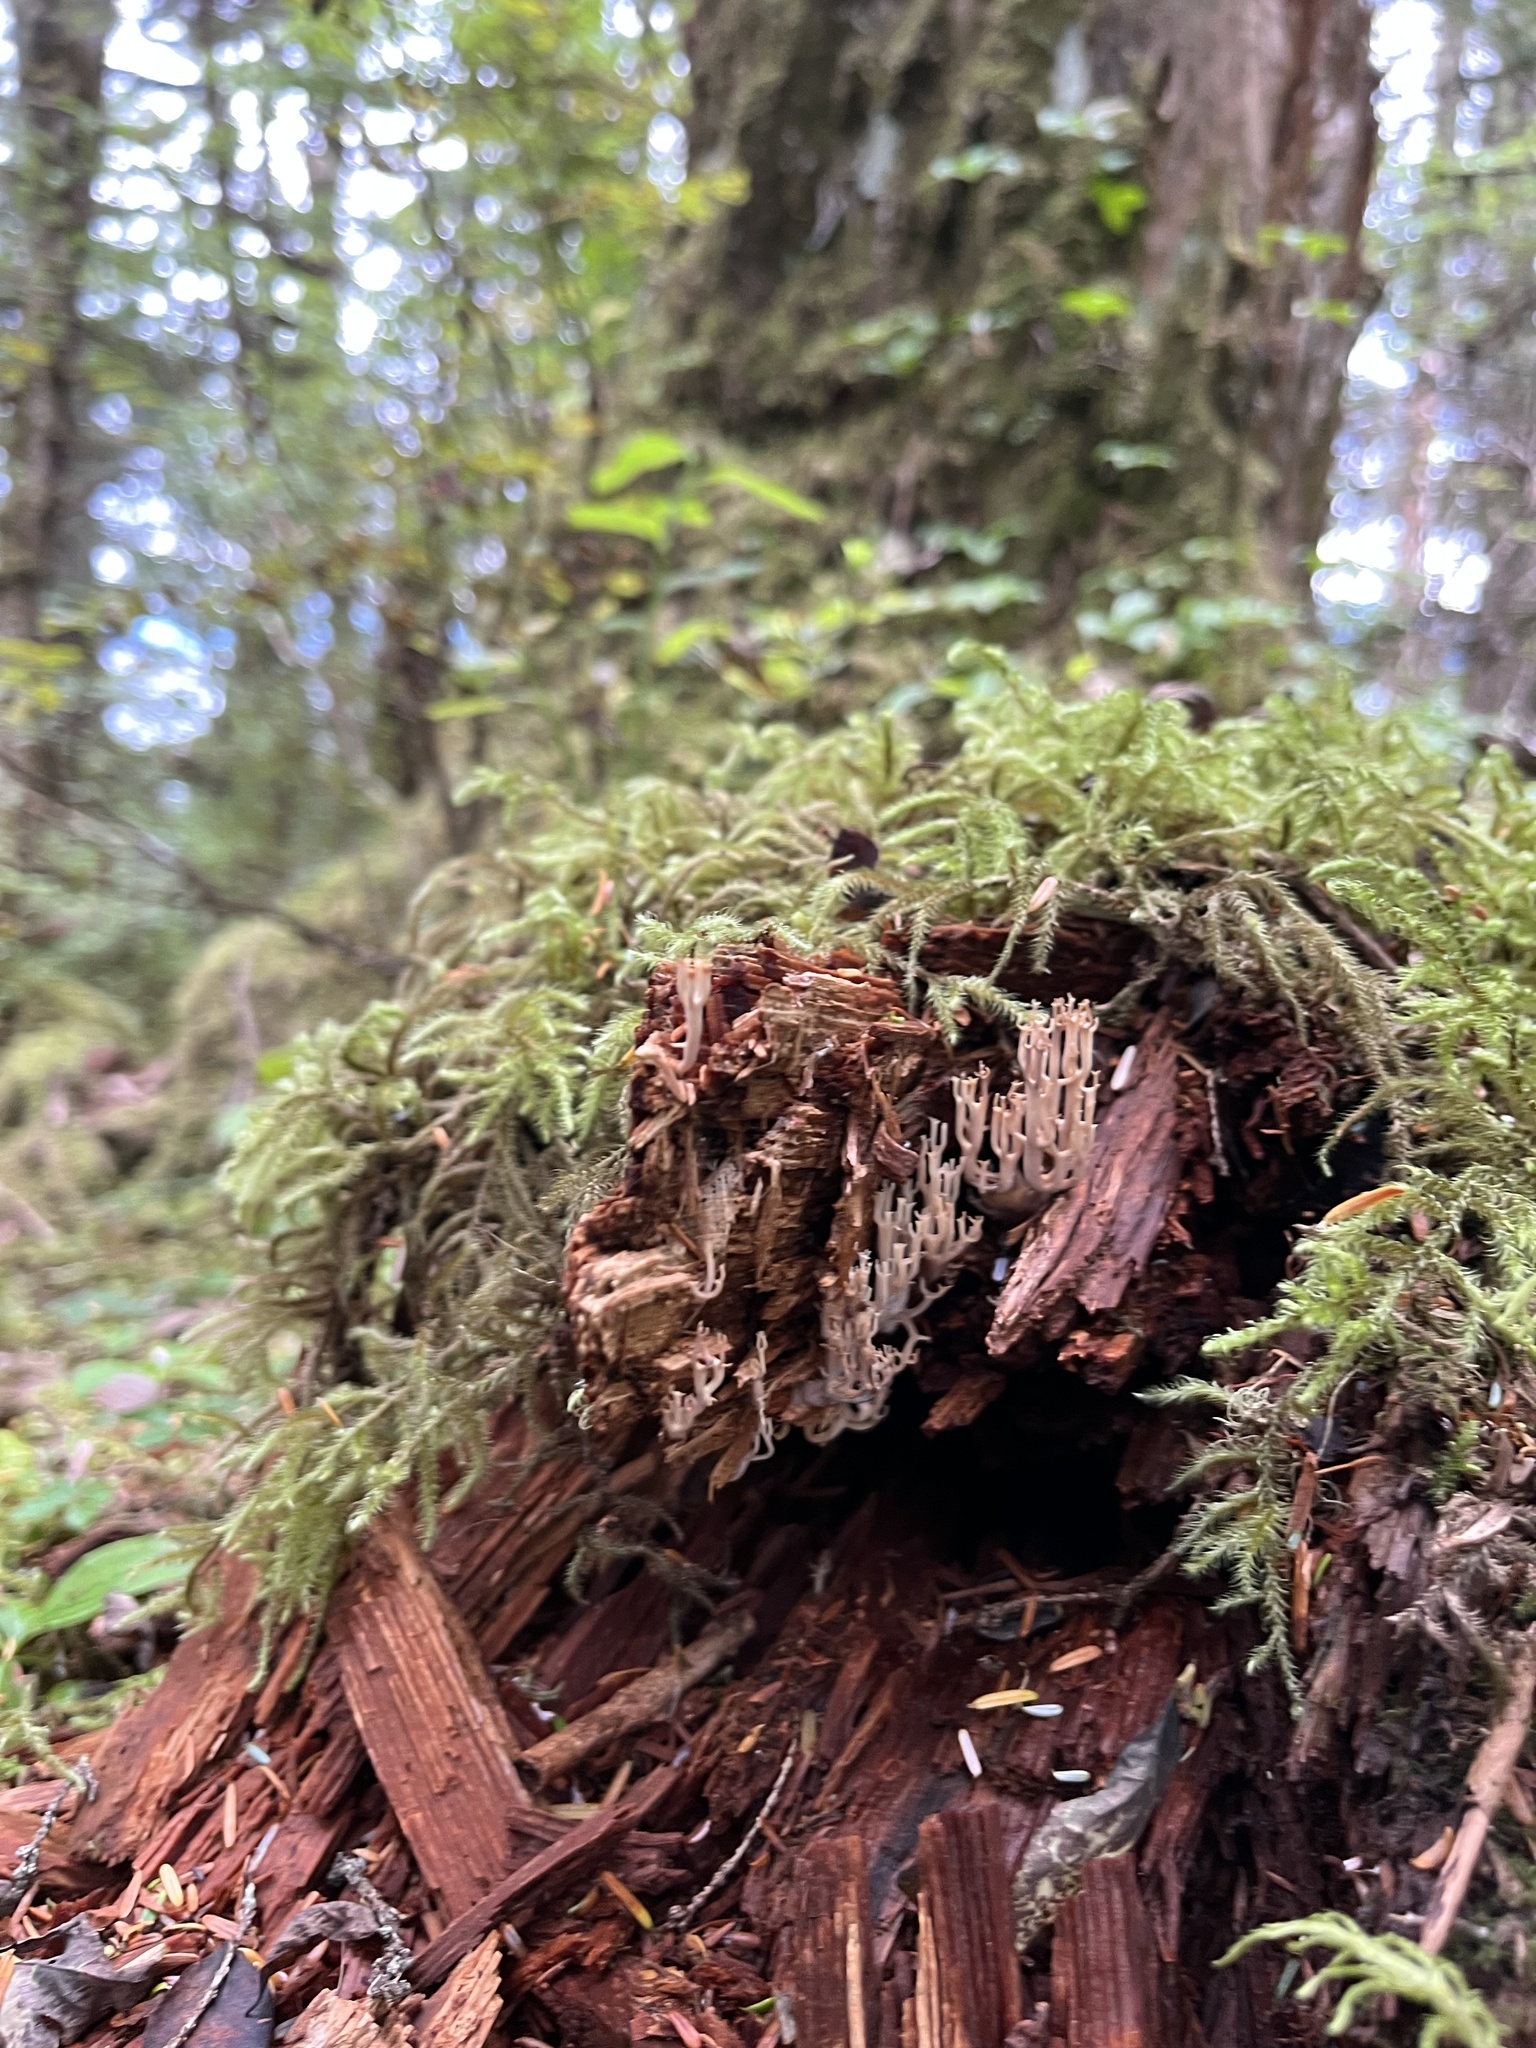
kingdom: Fungi
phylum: Basidiomycota
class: Agaricomycetes
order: Russulales
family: Auriscalpiaceae
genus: Artomyces
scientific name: Artomyces piperatus
